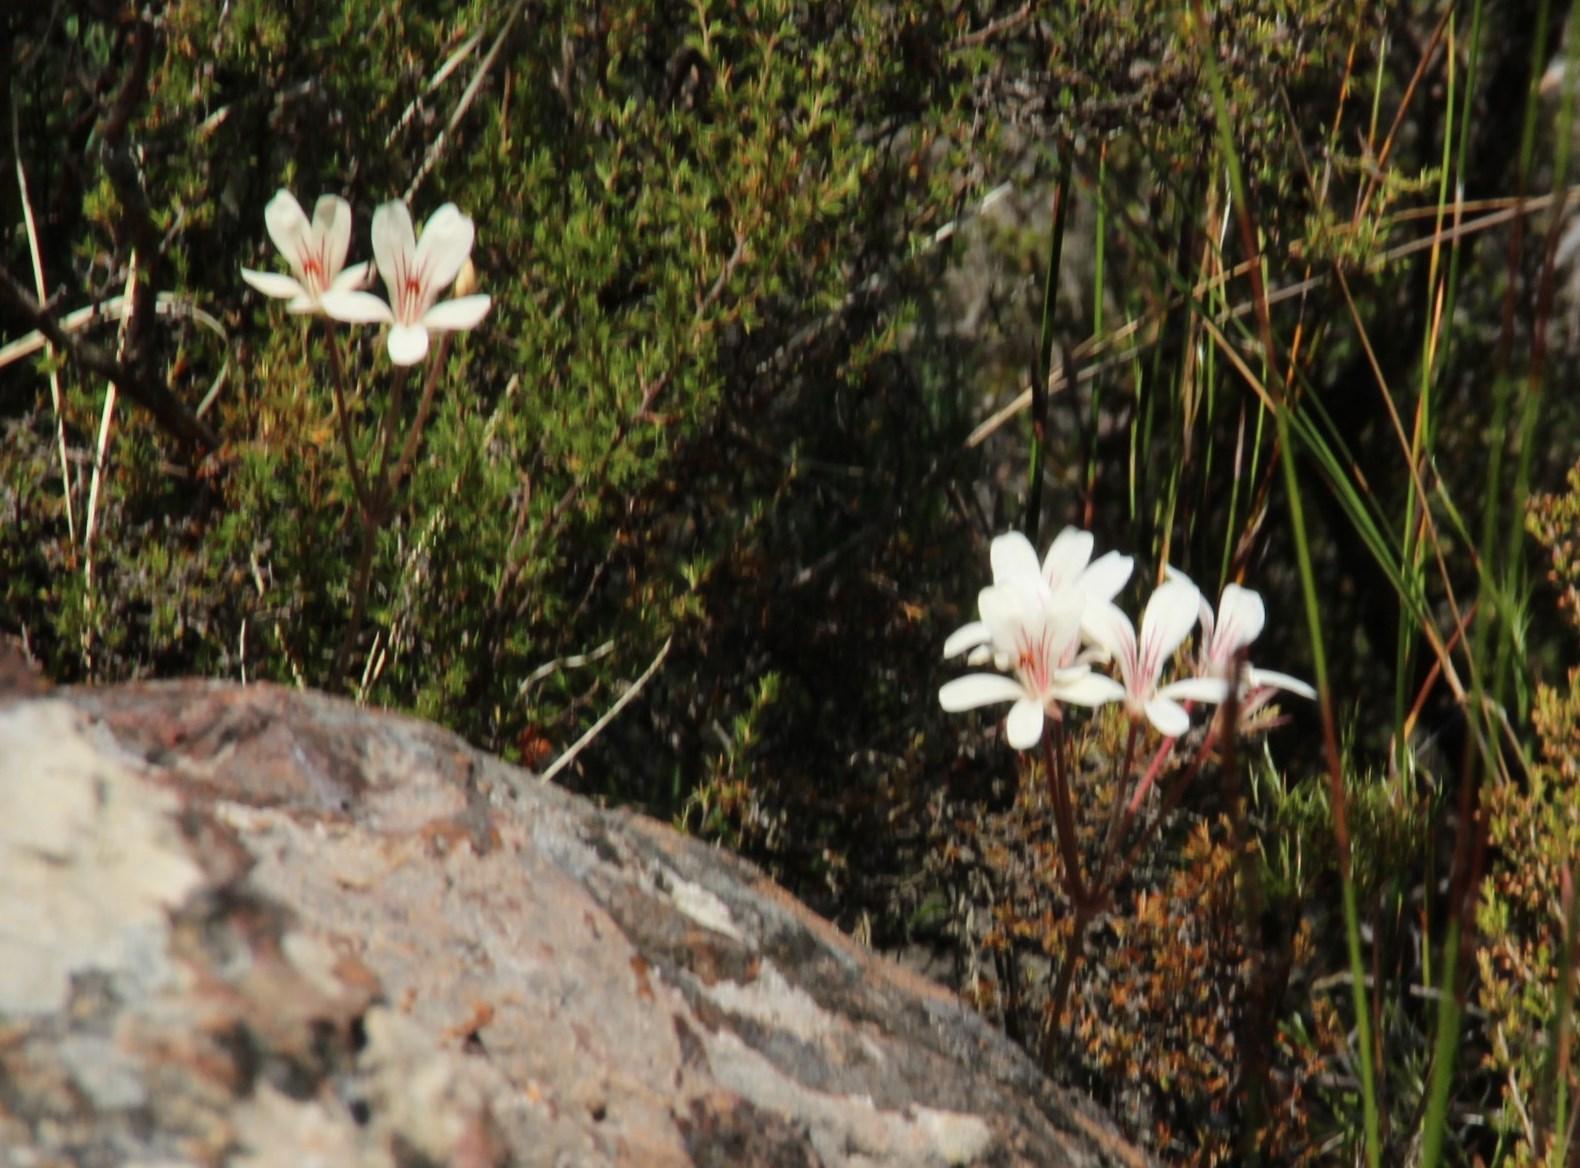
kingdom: Plantae
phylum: Tracheophyta
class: Magnoliopsida
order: Geraniales
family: Geraniaceae
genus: Pelargonium
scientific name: Pelargonium radiatum
